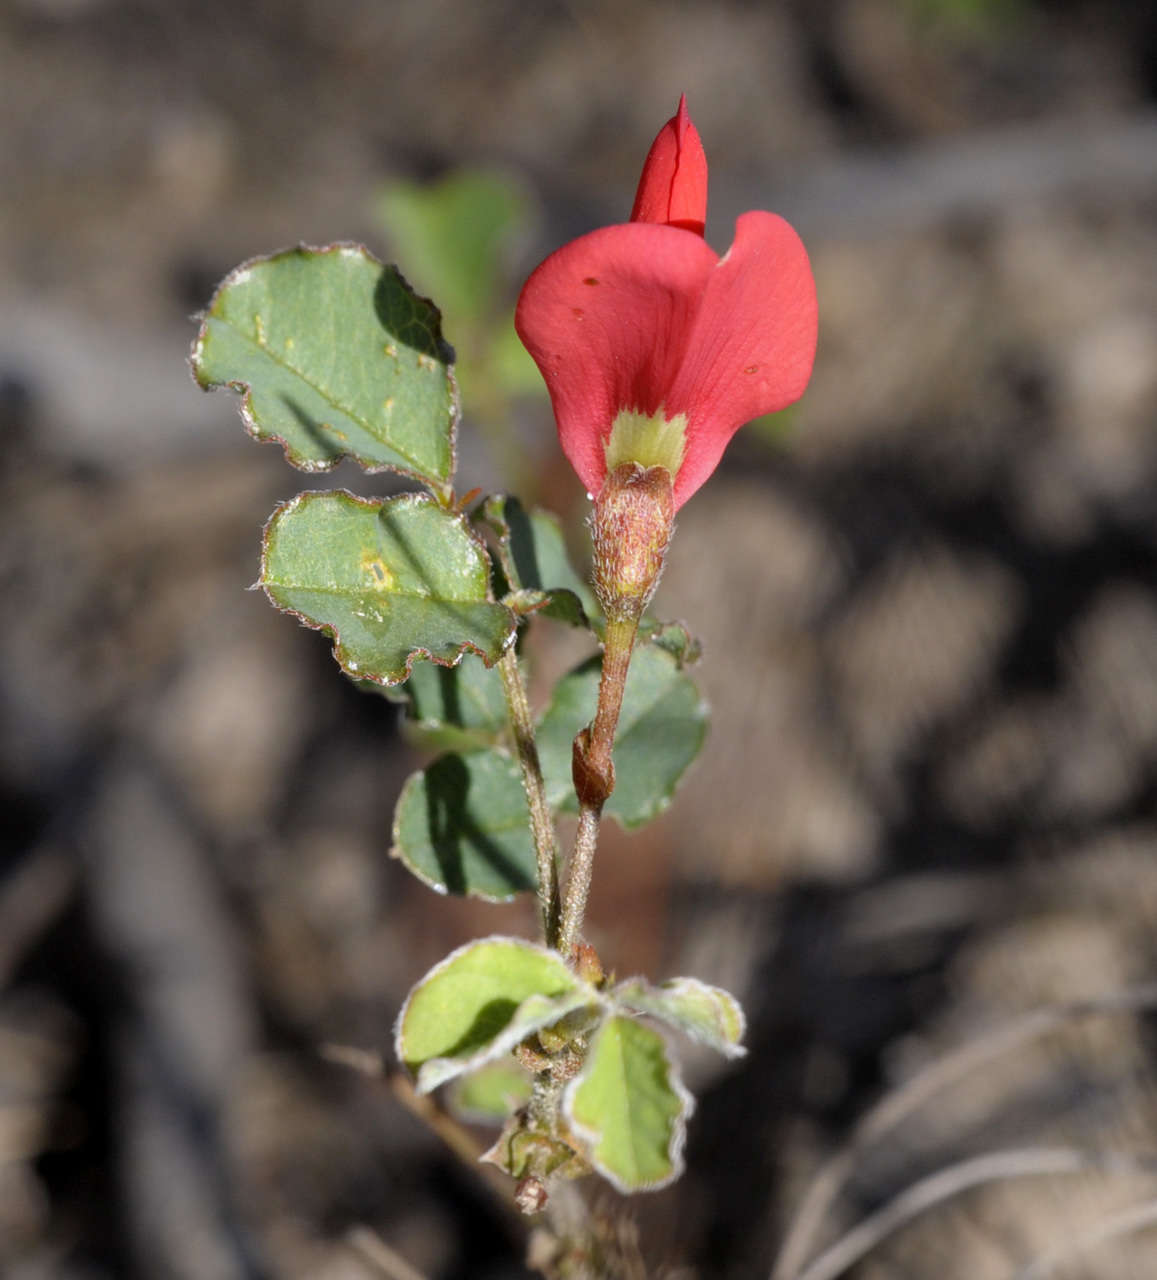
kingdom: Plantae
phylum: Tracheophyta
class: Magnoliopsida
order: Fabales
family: Fabaceae
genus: Kennedia
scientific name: Kennedia prostrata
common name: Running-postman
